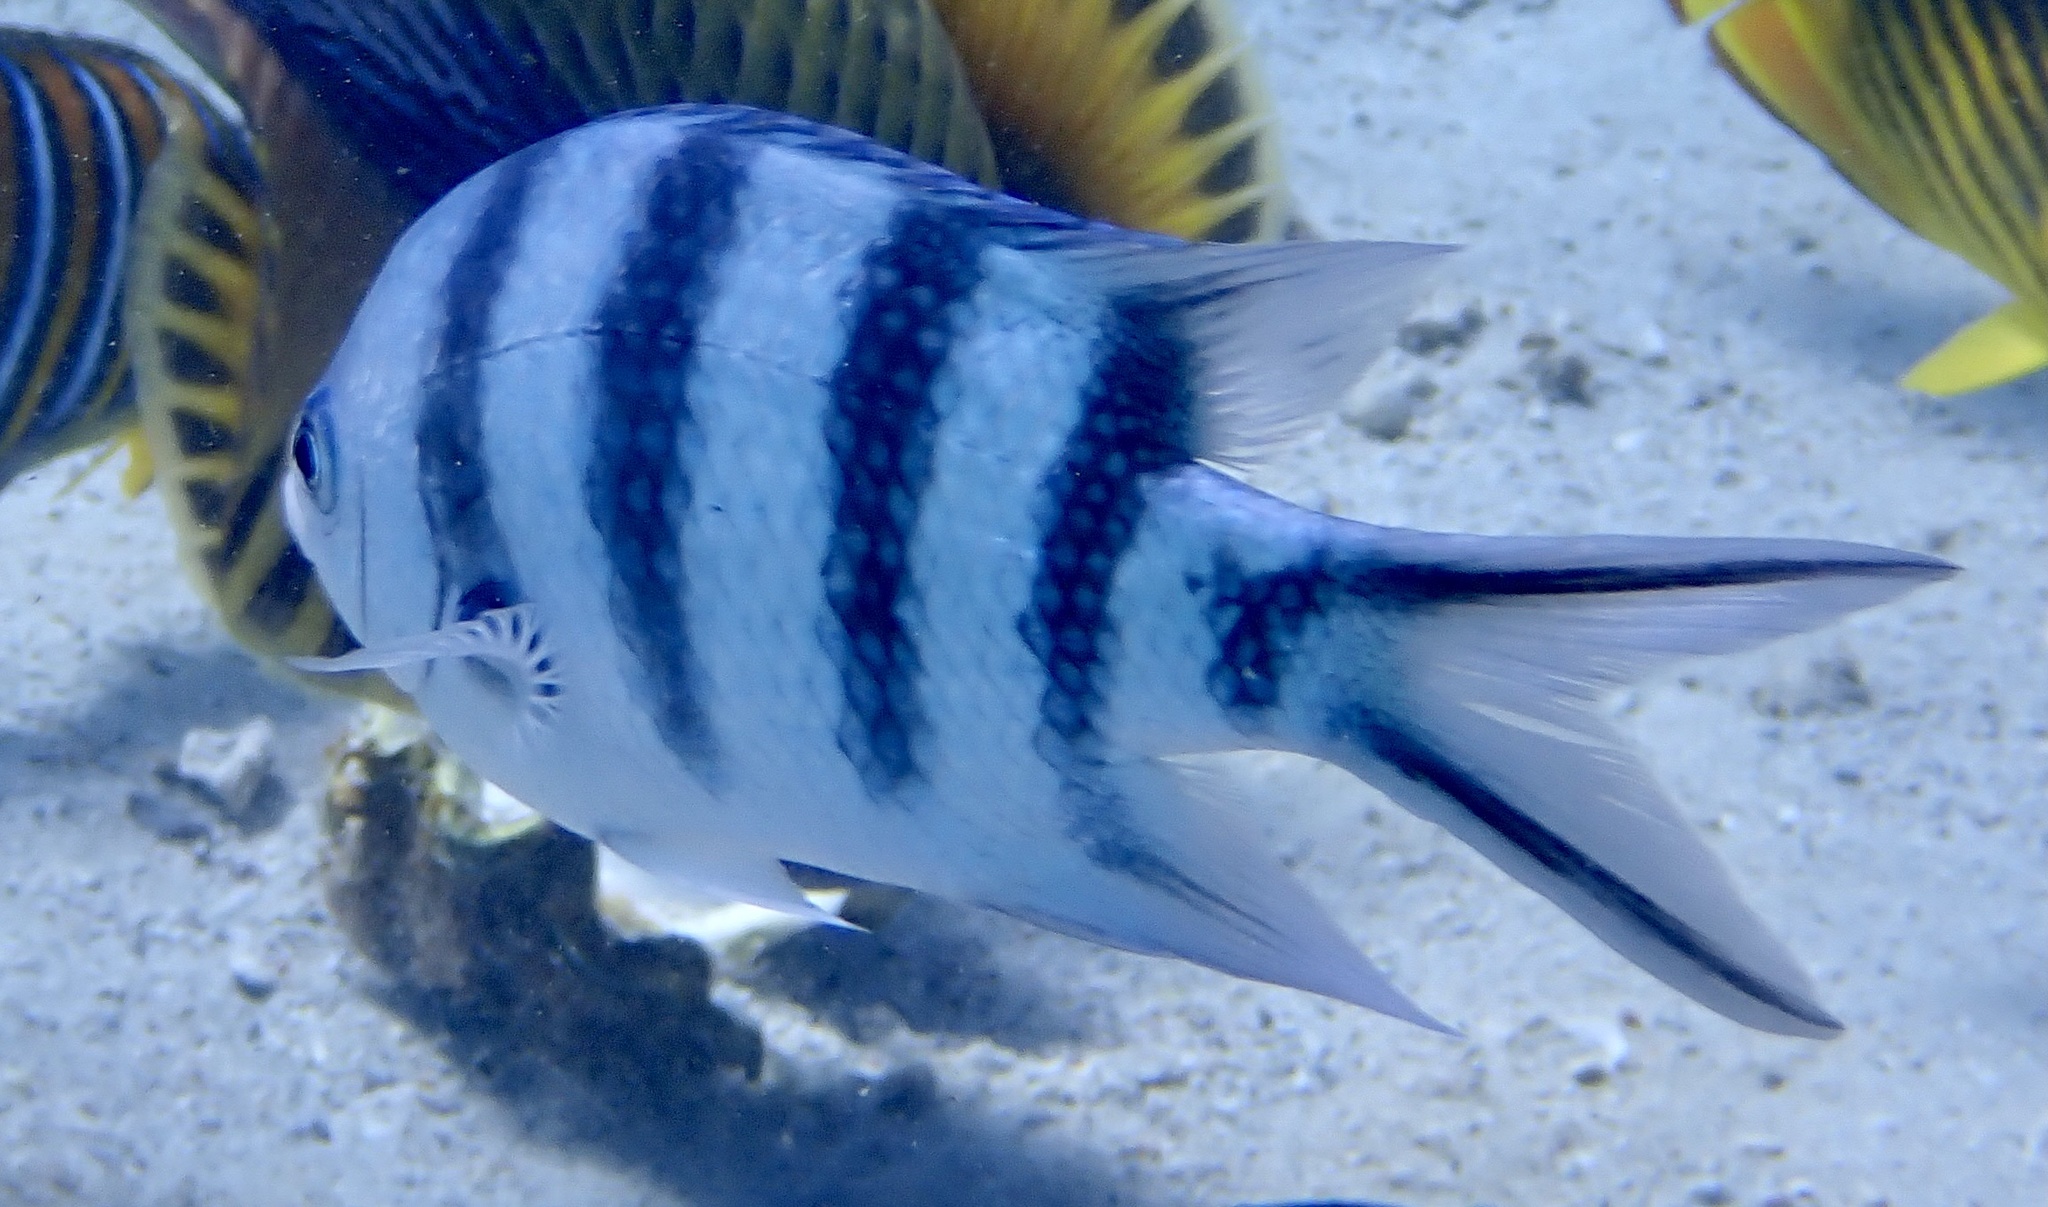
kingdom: Animalia
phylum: Chordata
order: Perciformes
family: Pomacentridae
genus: Abudefduf
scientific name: Abudefduf sexfasciatus
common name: Scissortail sergeant
